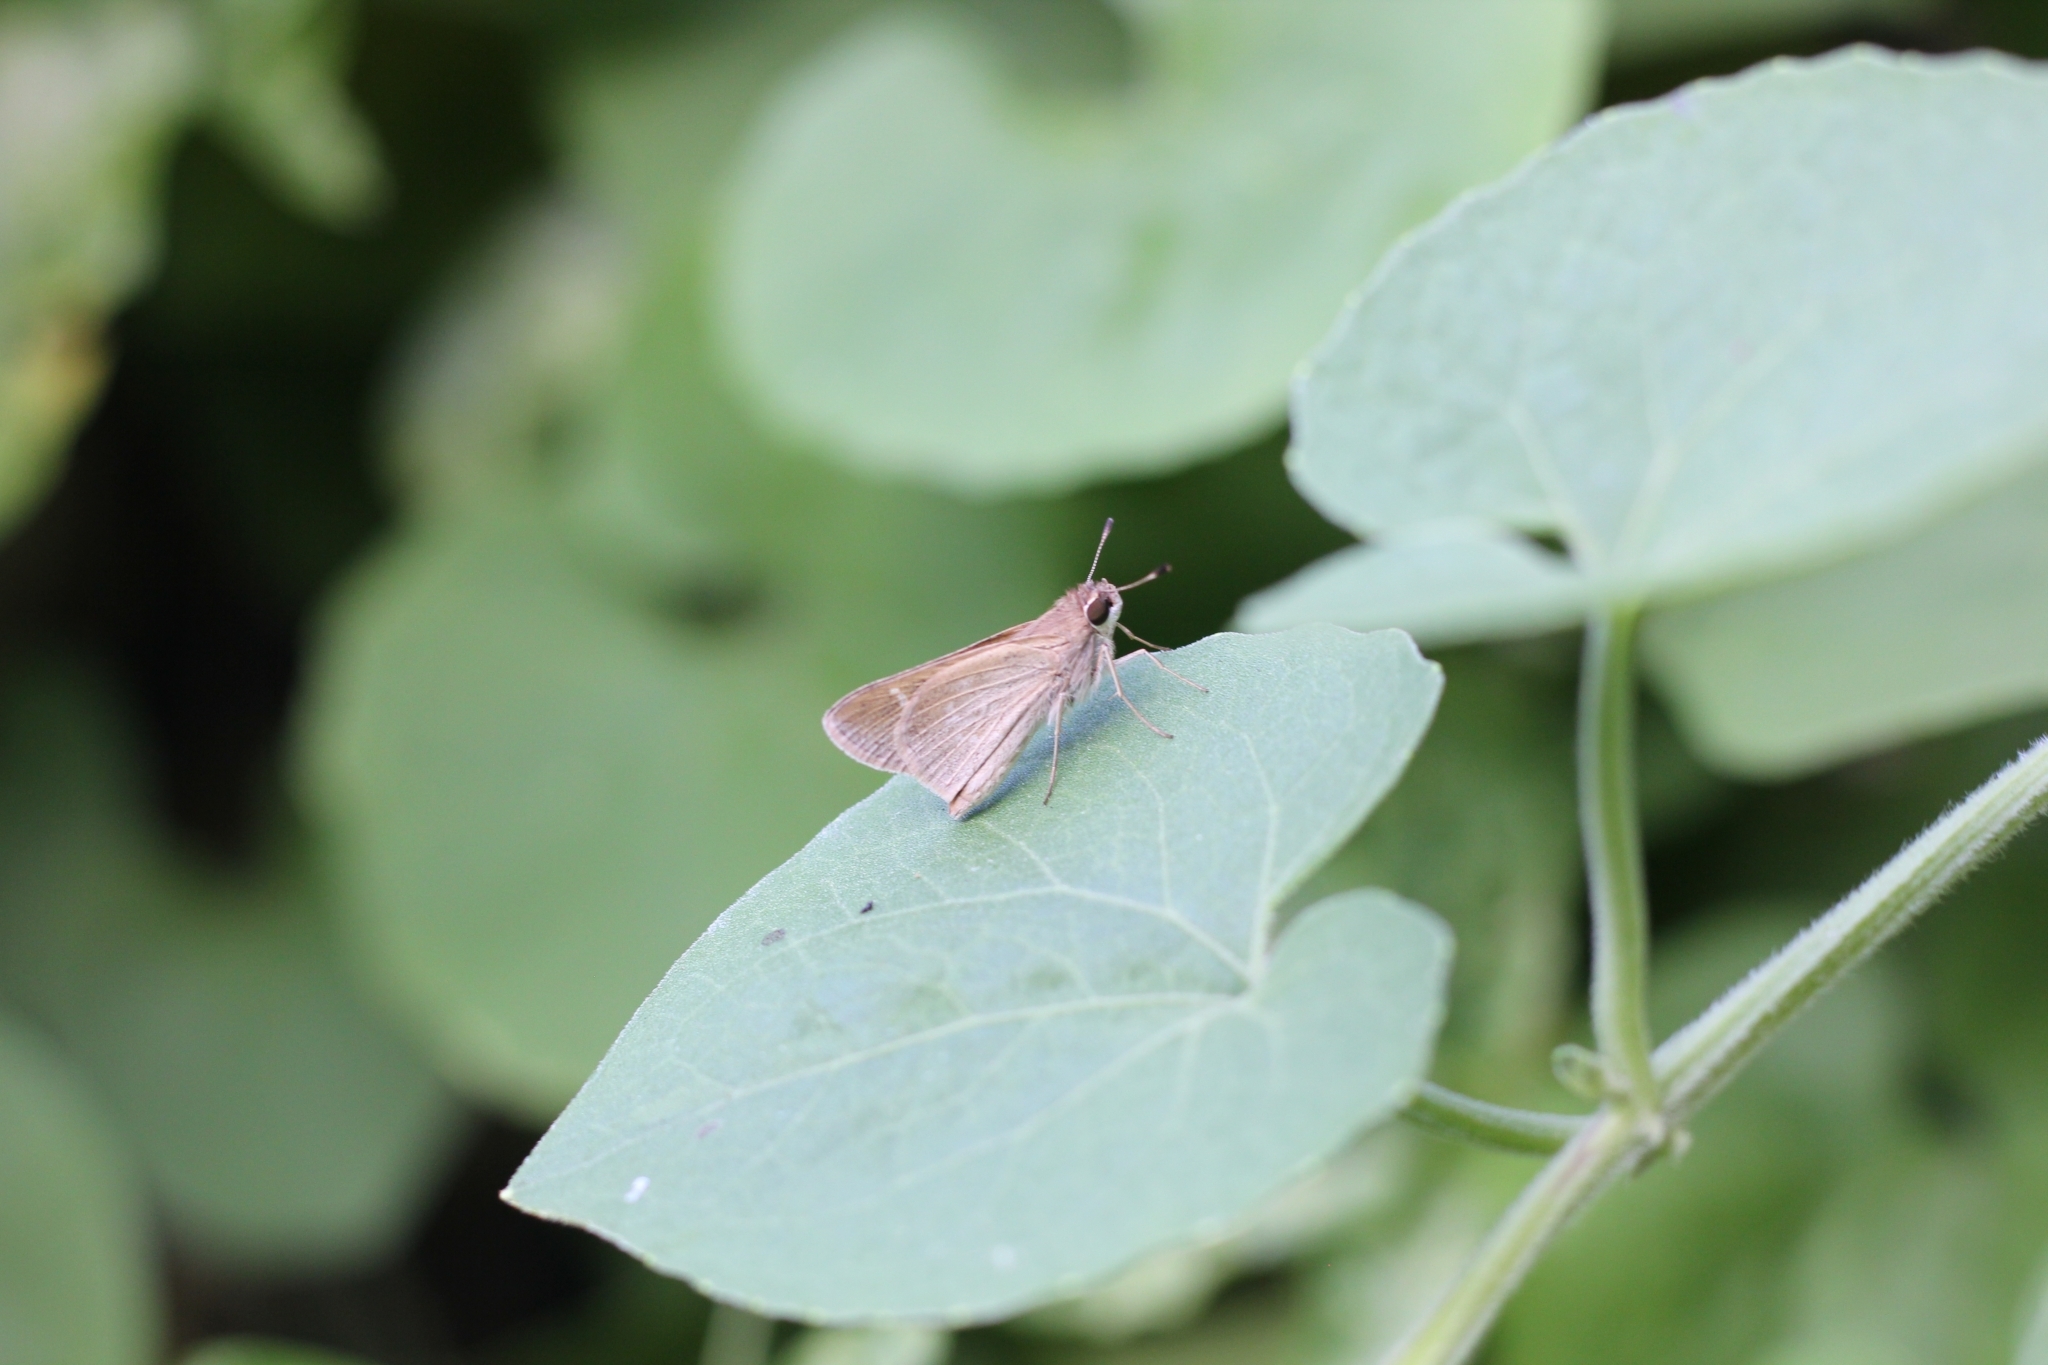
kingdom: Animalia
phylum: Arthropoda
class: Insecta
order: Lepidoptera
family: Hesperiidae
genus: Lerodea
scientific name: Lerodea eufala
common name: Eufala skipper
